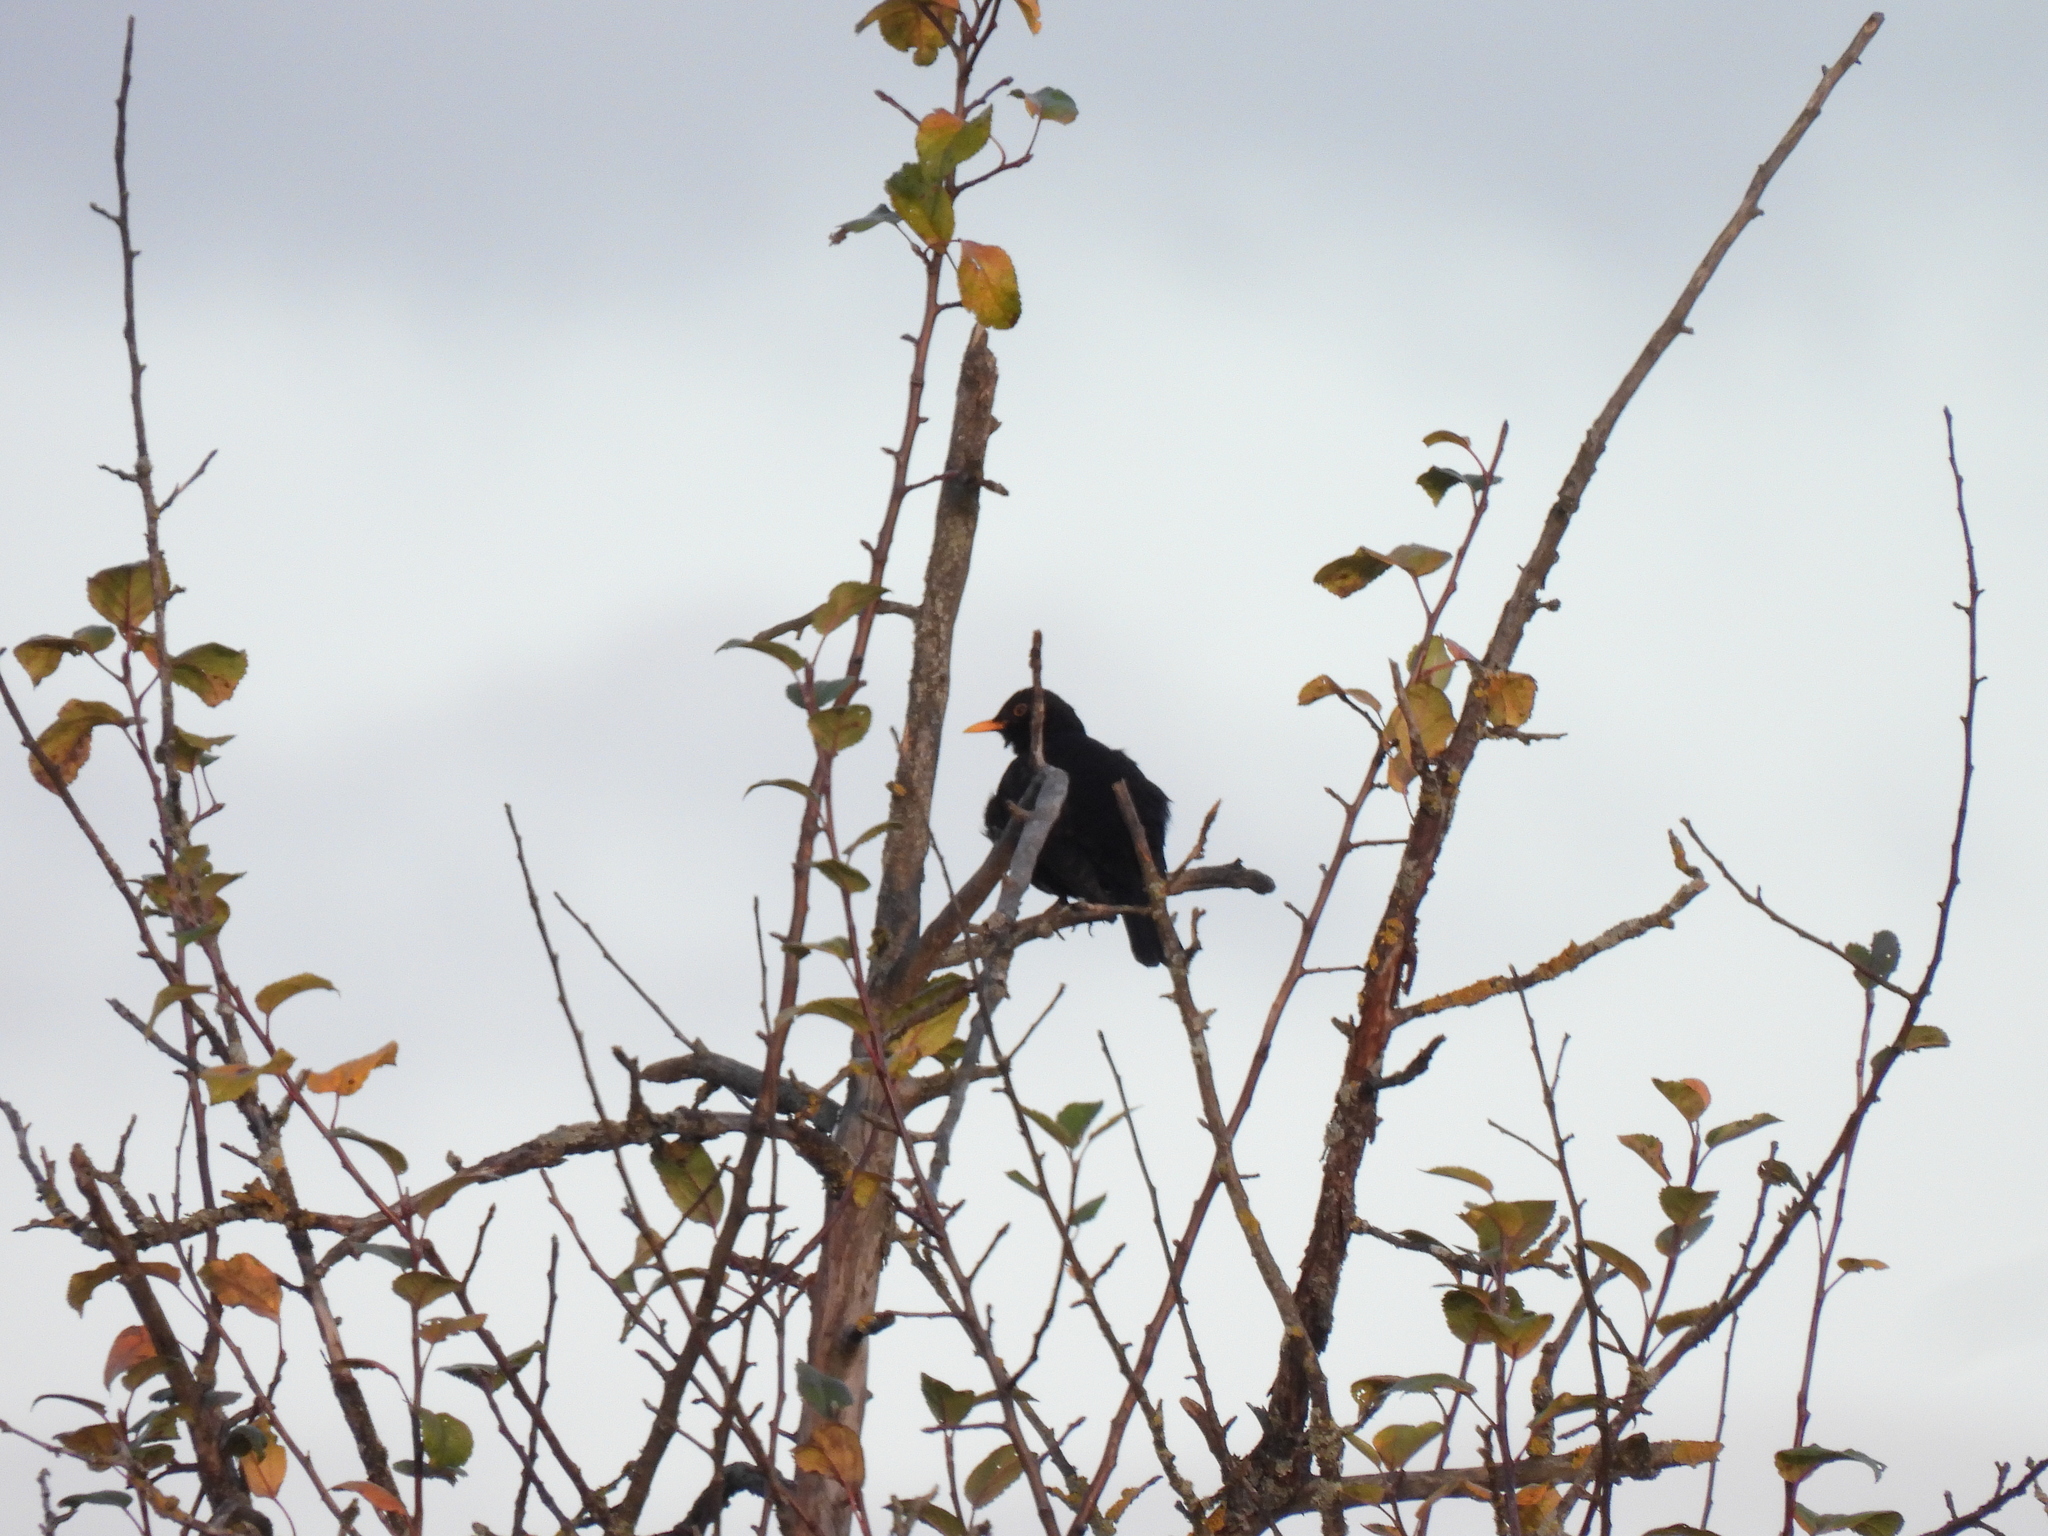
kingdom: Animalia
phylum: Chordata
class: Aves
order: Passeriformes
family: Turdidae
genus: Turdus
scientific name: Turdus merula
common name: Common blackbird
